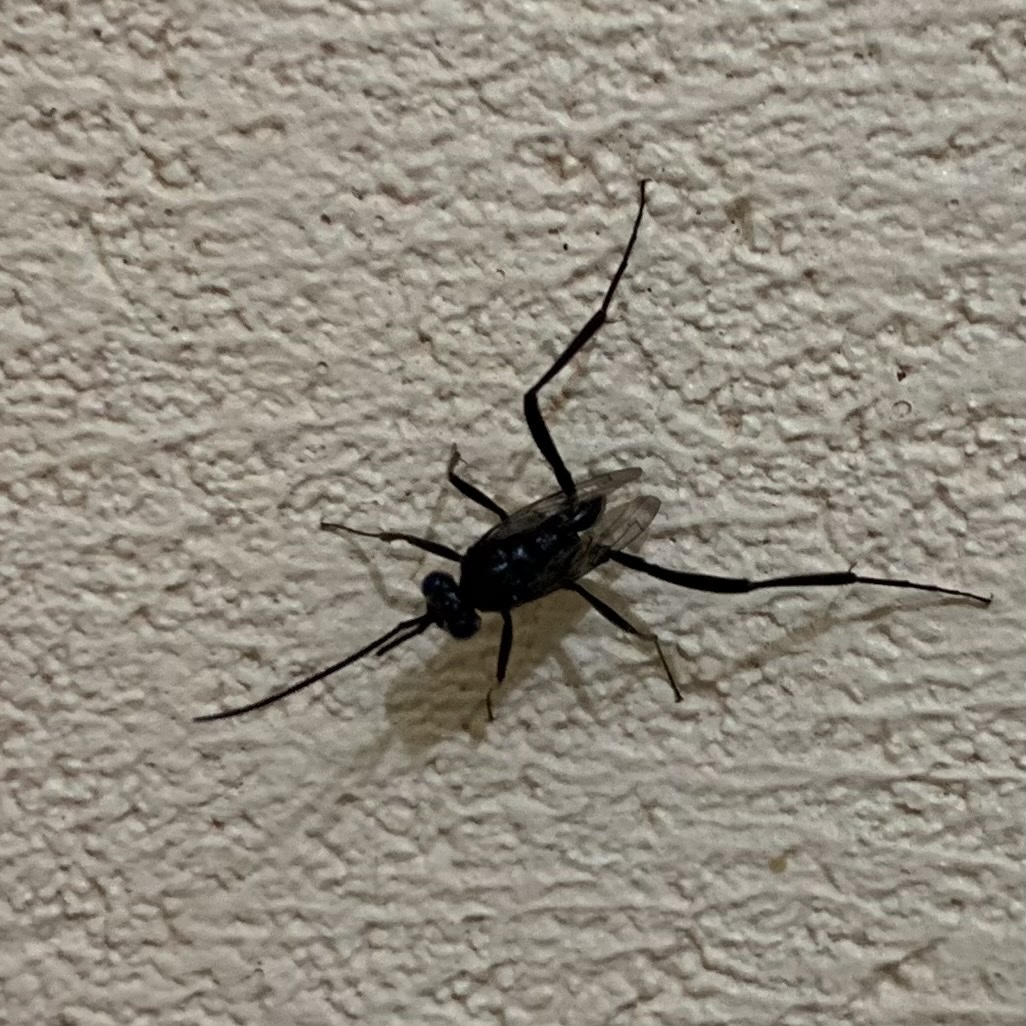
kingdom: Animalia
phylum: Arthropoda
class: Insecta
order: Hymenoptera
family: Evaniidae
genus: Evania
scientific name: Evania appendigaster
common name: Ensign wasp
